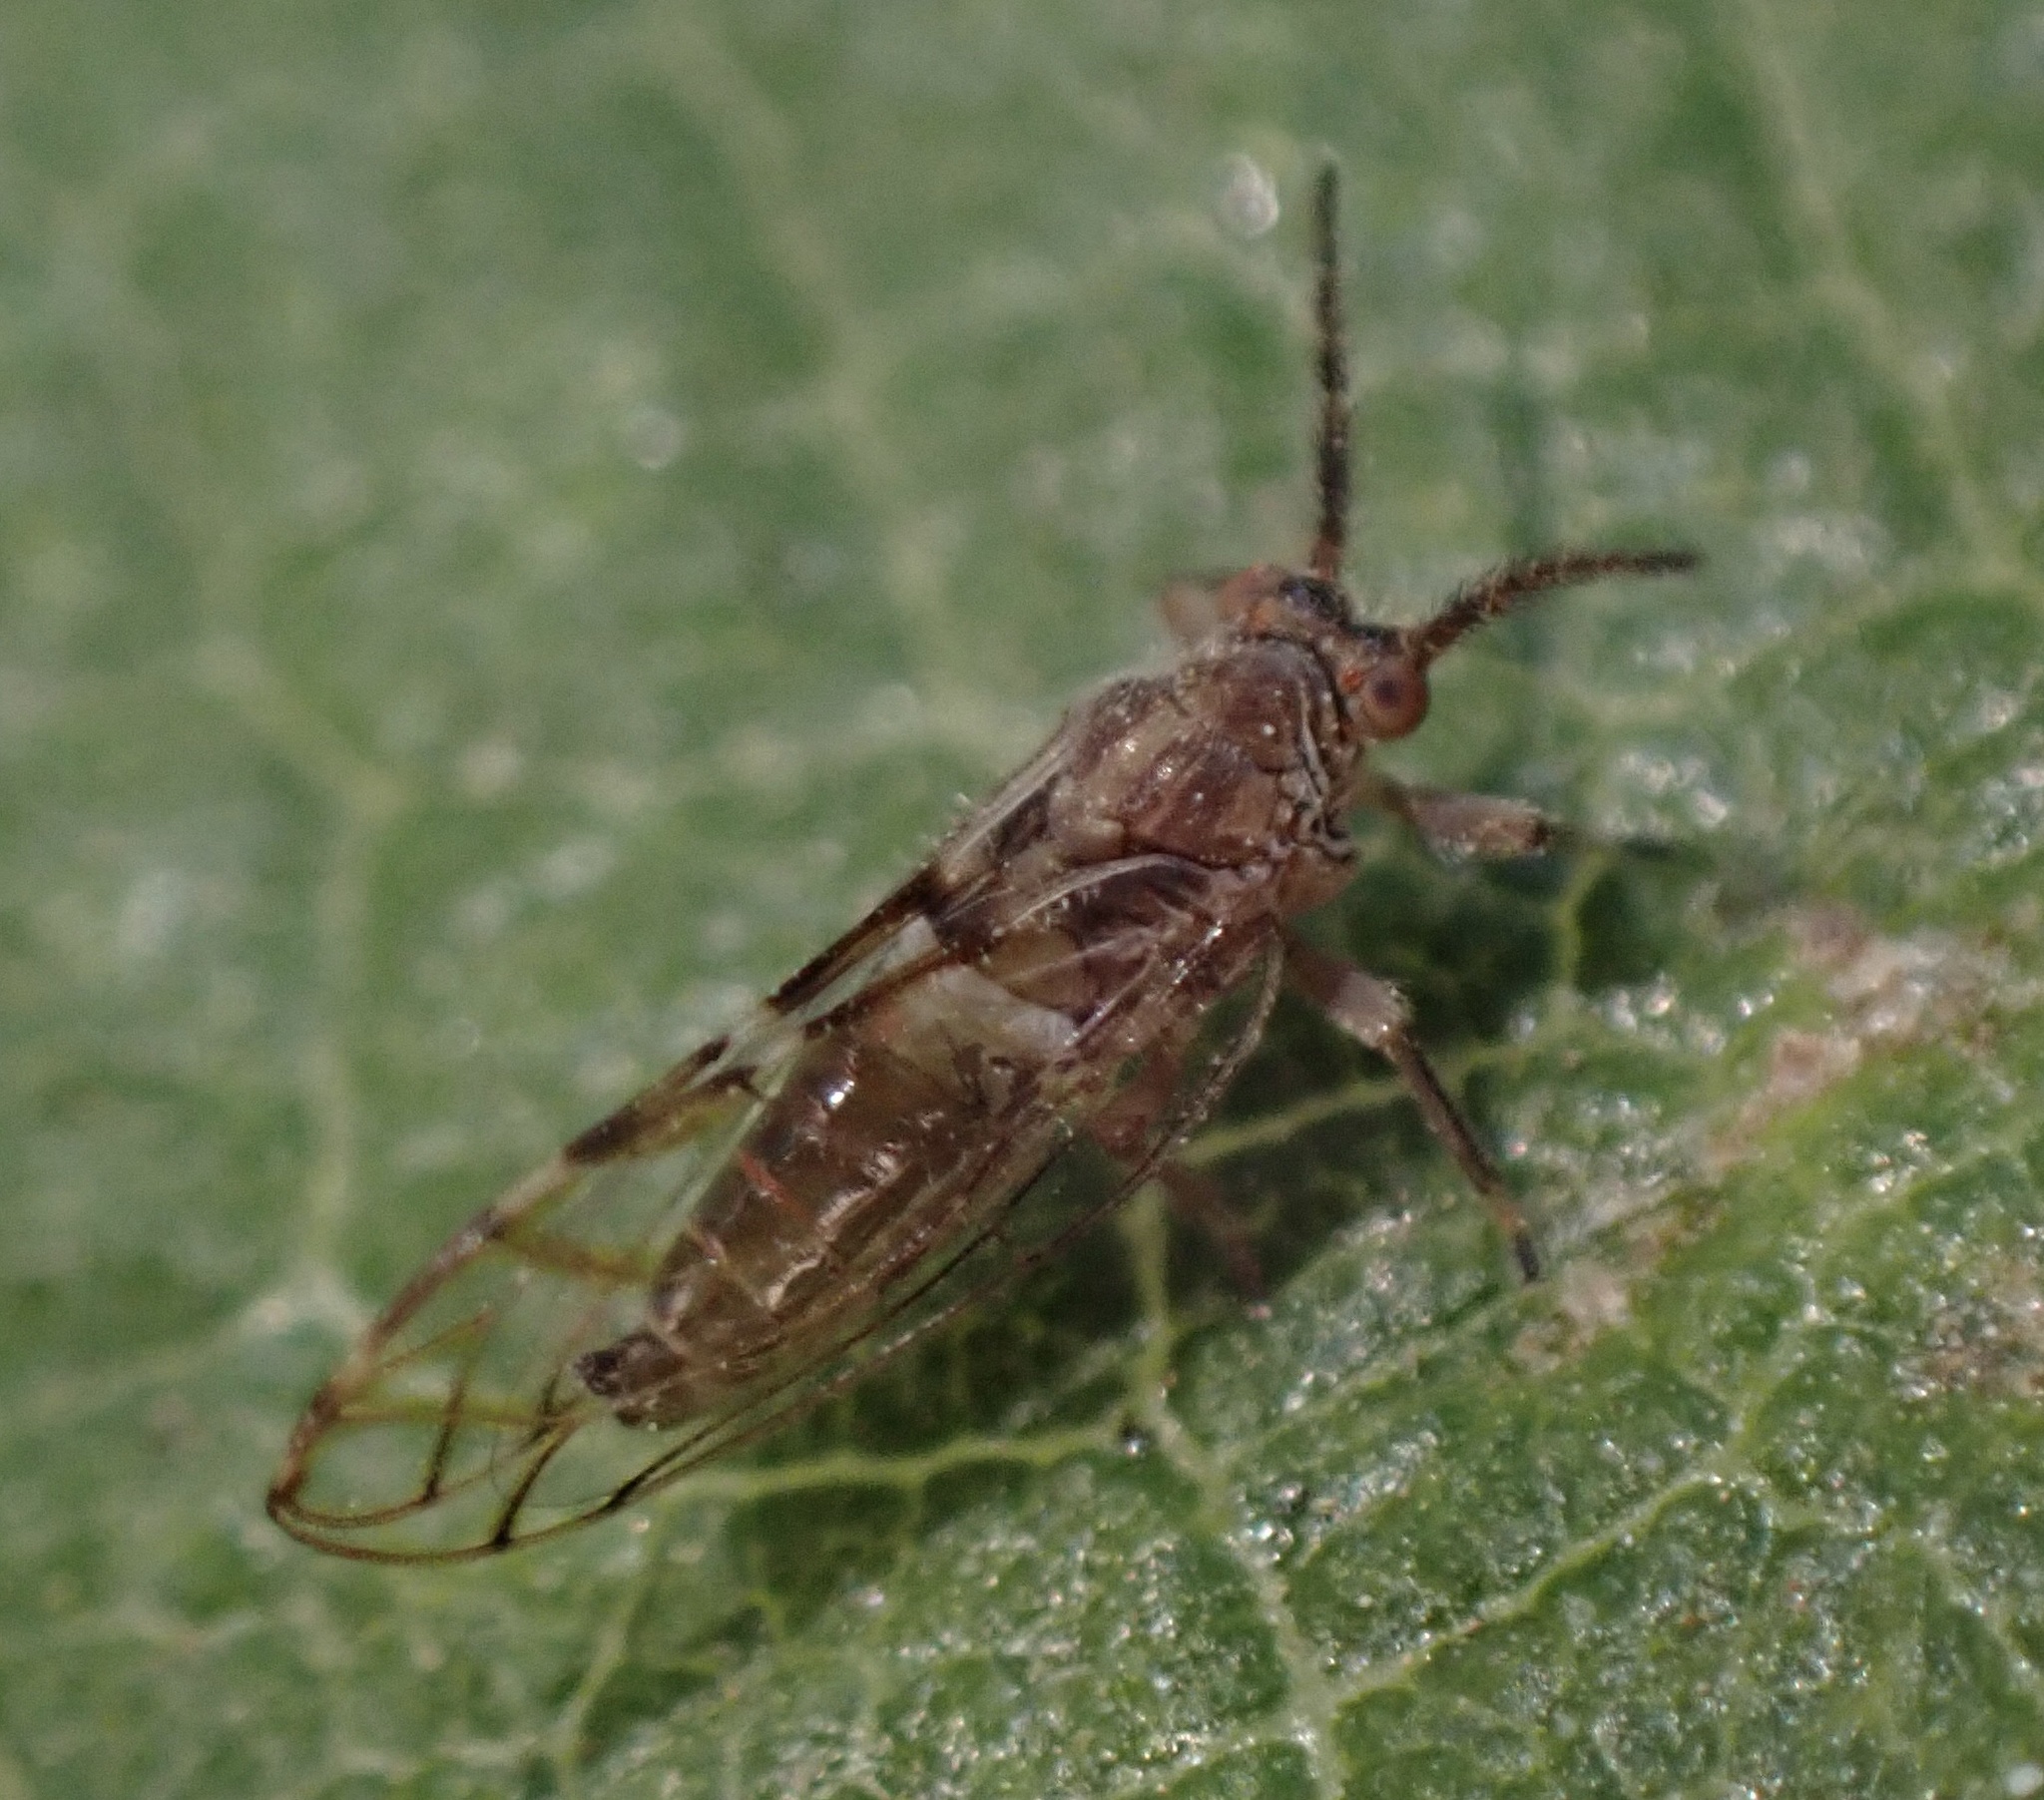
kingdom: Animalia
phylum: Arthropoda
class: Insecta
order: Hemiptera
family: Homotomidae
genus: Homotoma
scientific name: Homotoma ficus
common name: Fig psillid
